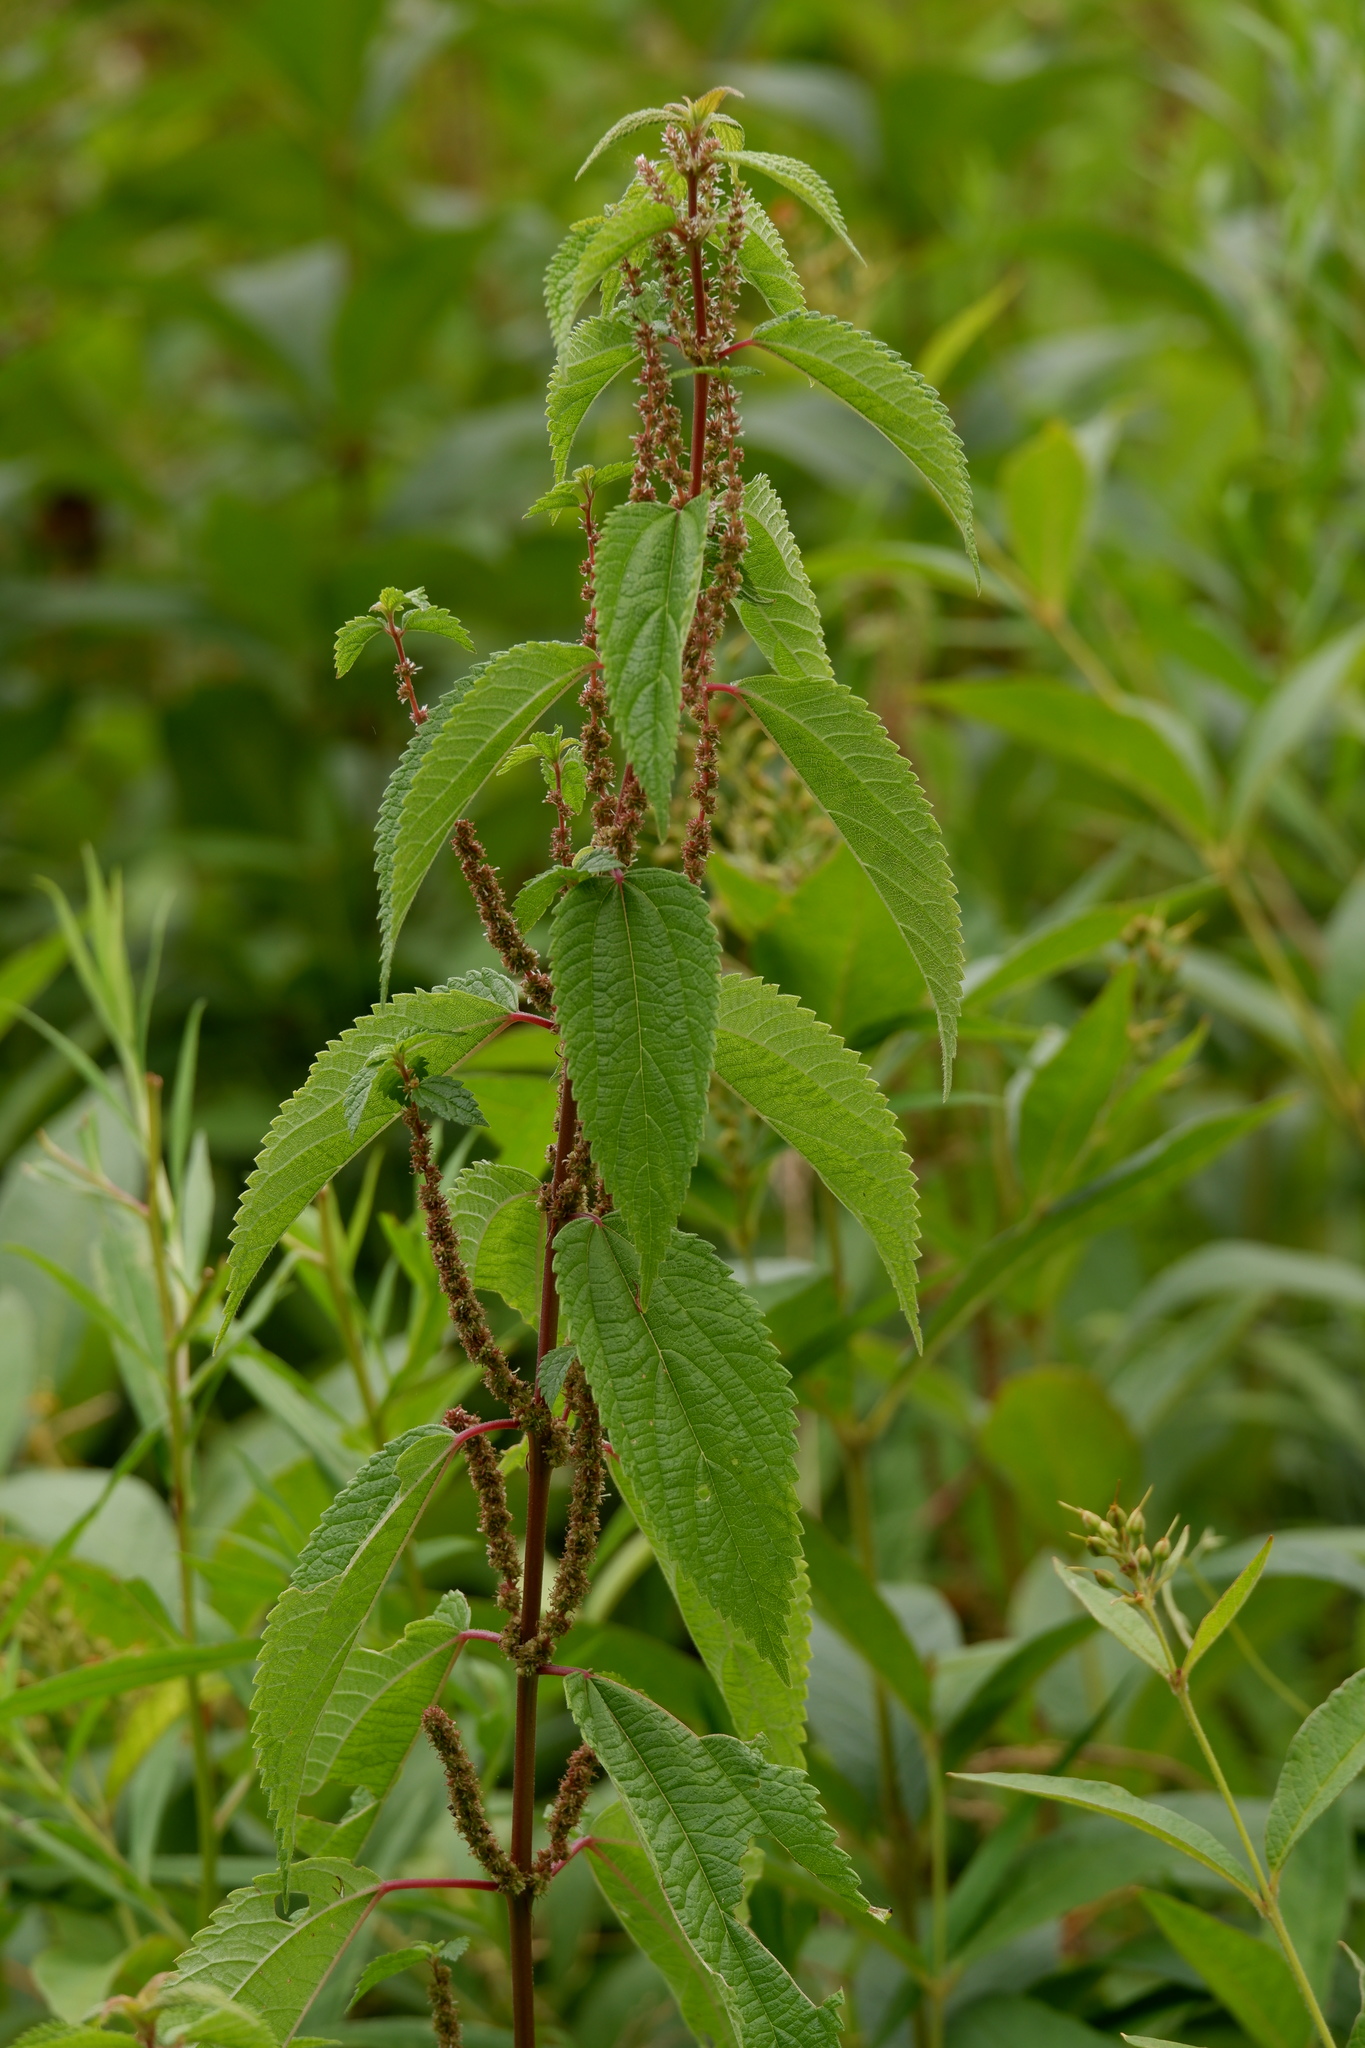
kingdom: Plantae
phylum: Tracheophyta
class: Magnoliopsida
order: Rosales
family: Urticaceae
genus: Boehmeria
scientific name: Boehmeria cylindrica
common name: Bog-hemp
